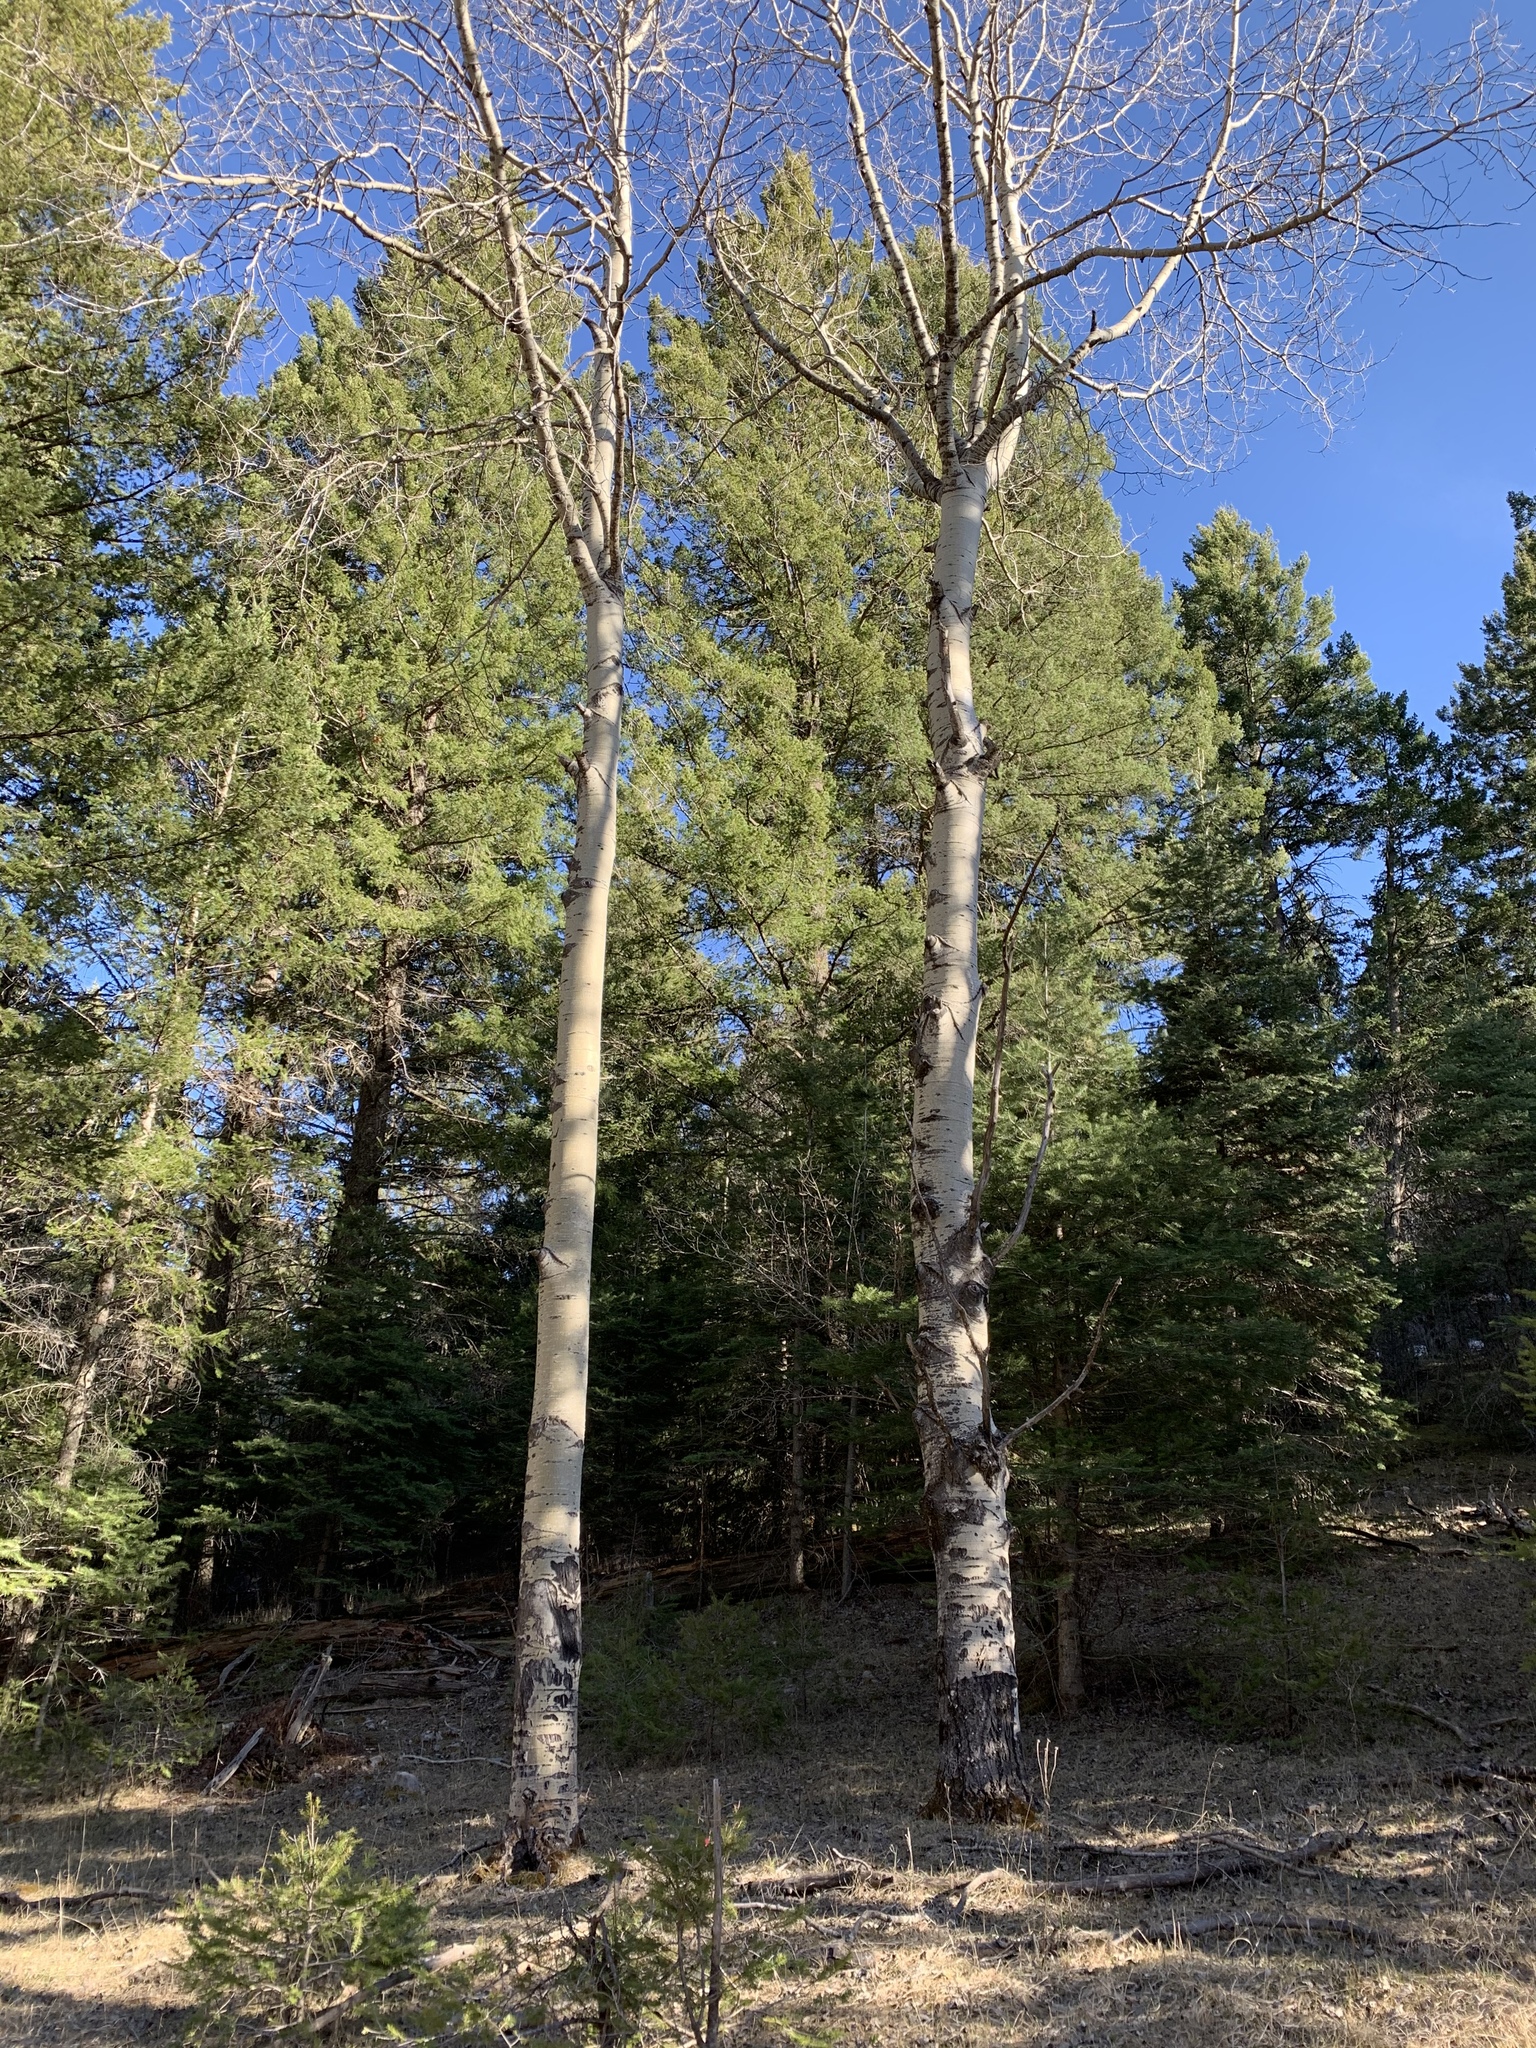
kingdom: Plantae
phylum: Tracheophyta
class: Magnoliopsida
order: Malpighiales
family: Salicaceae
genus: Populus
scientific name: Populus tremuloides
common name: Quaking aspen
